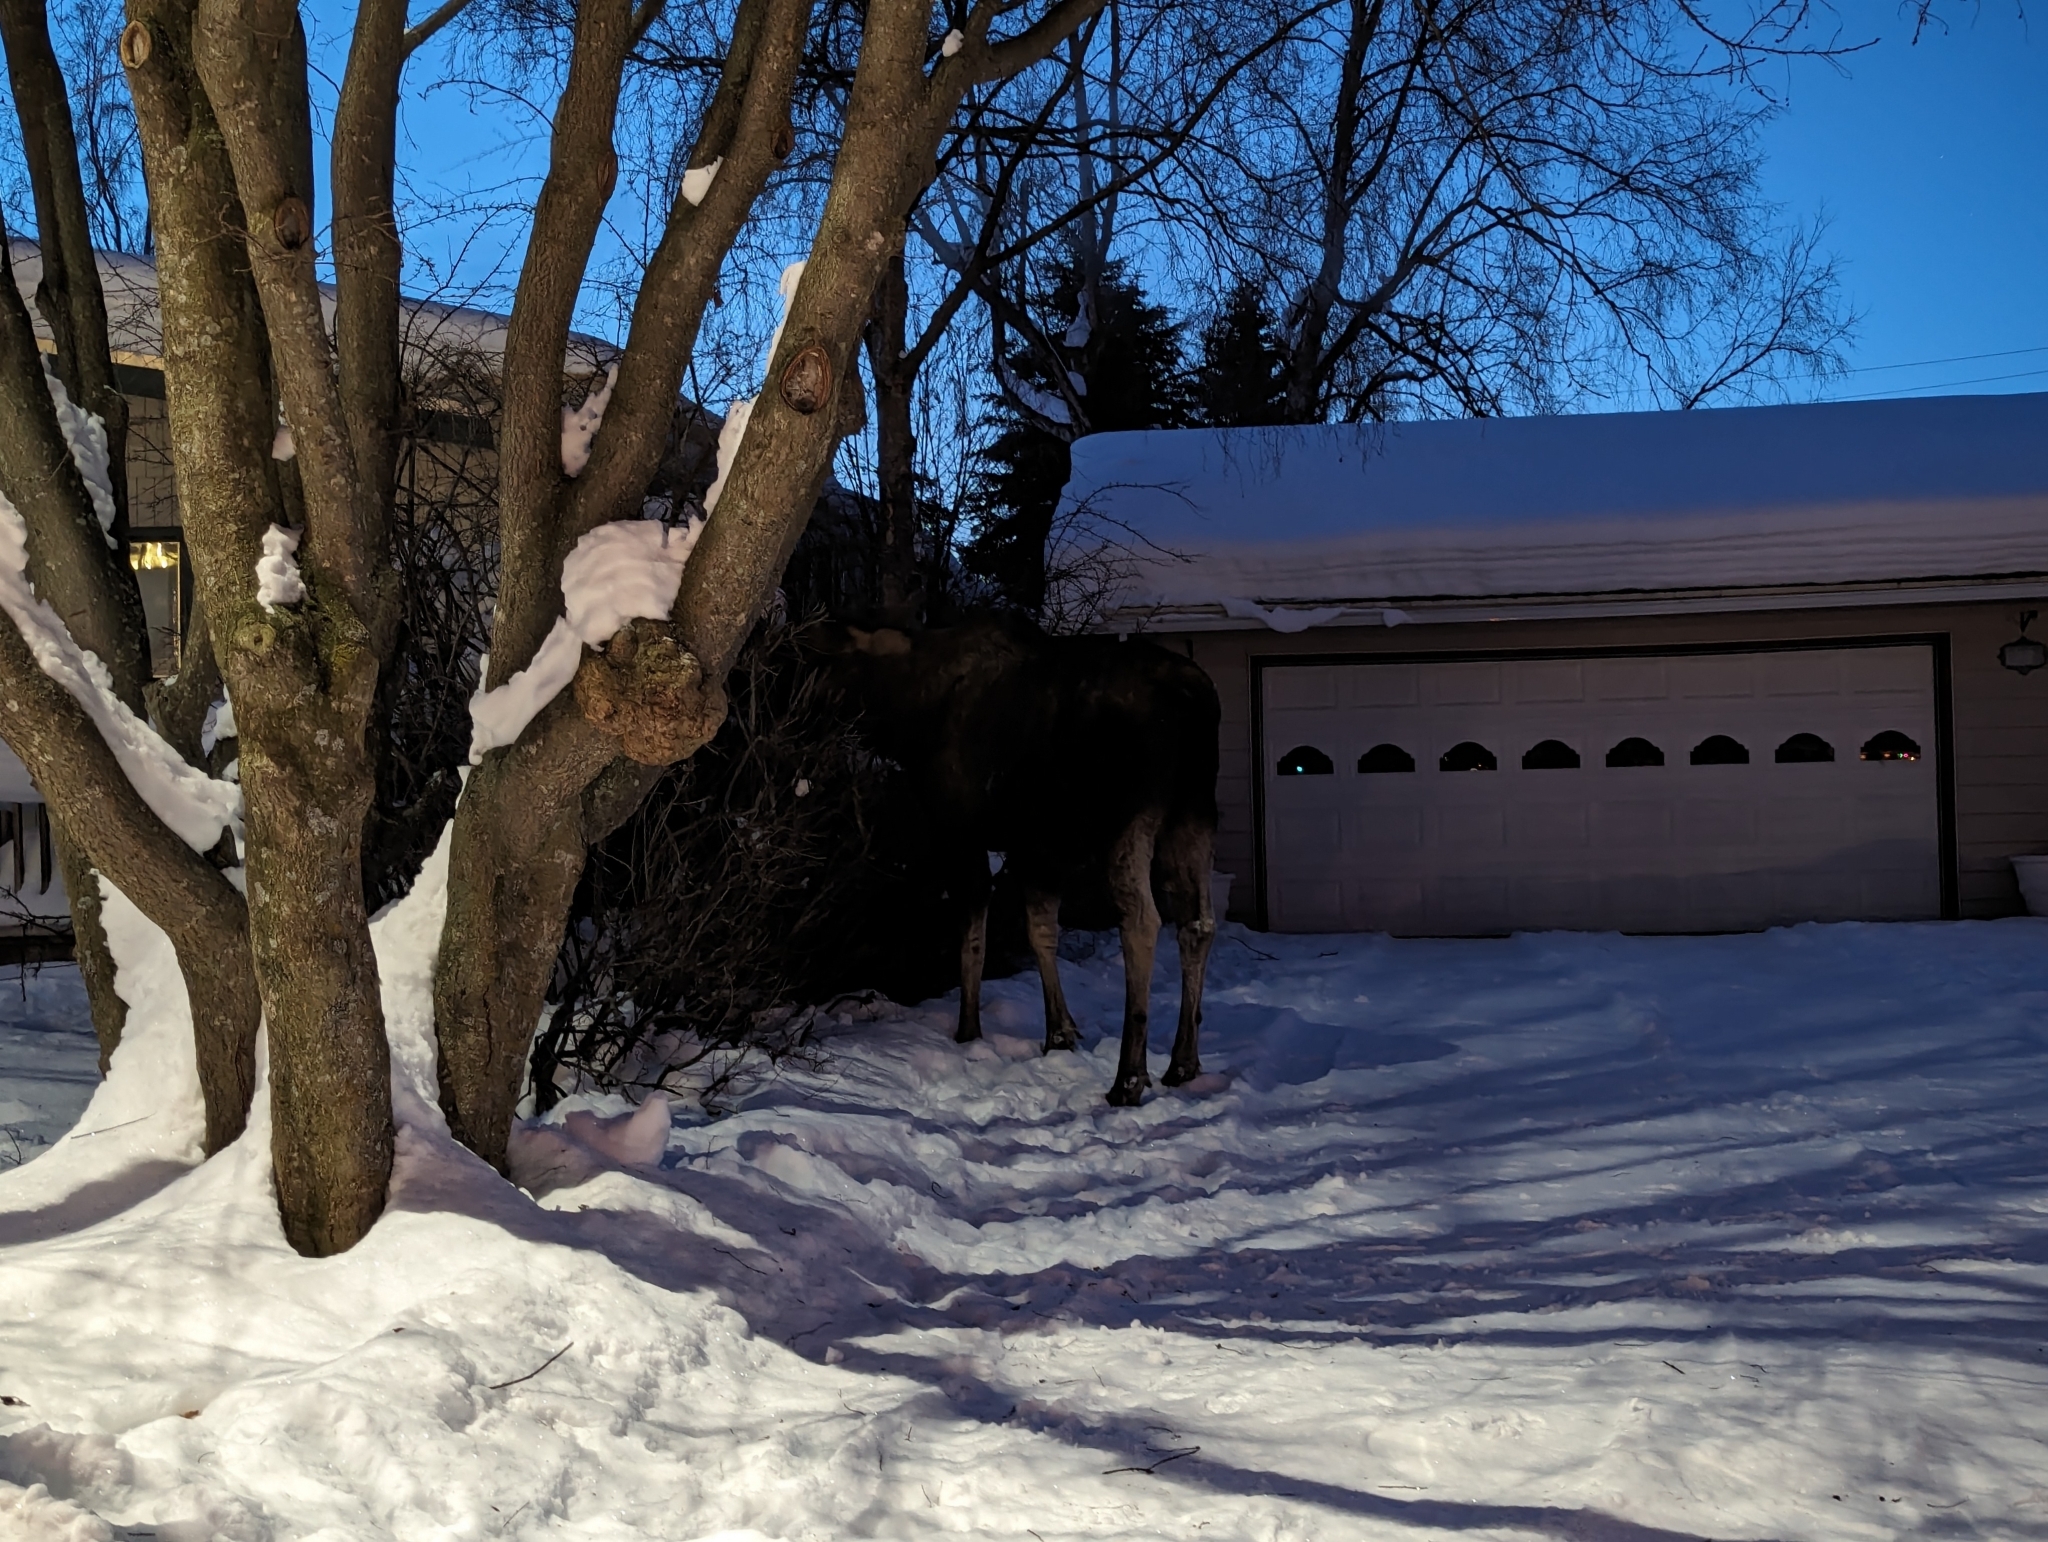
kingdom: Animalia
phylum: Chordata
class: Mammalia
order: Artiodactyla
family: Cervidae
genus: Alces
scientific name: Alces alces
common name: Moose
